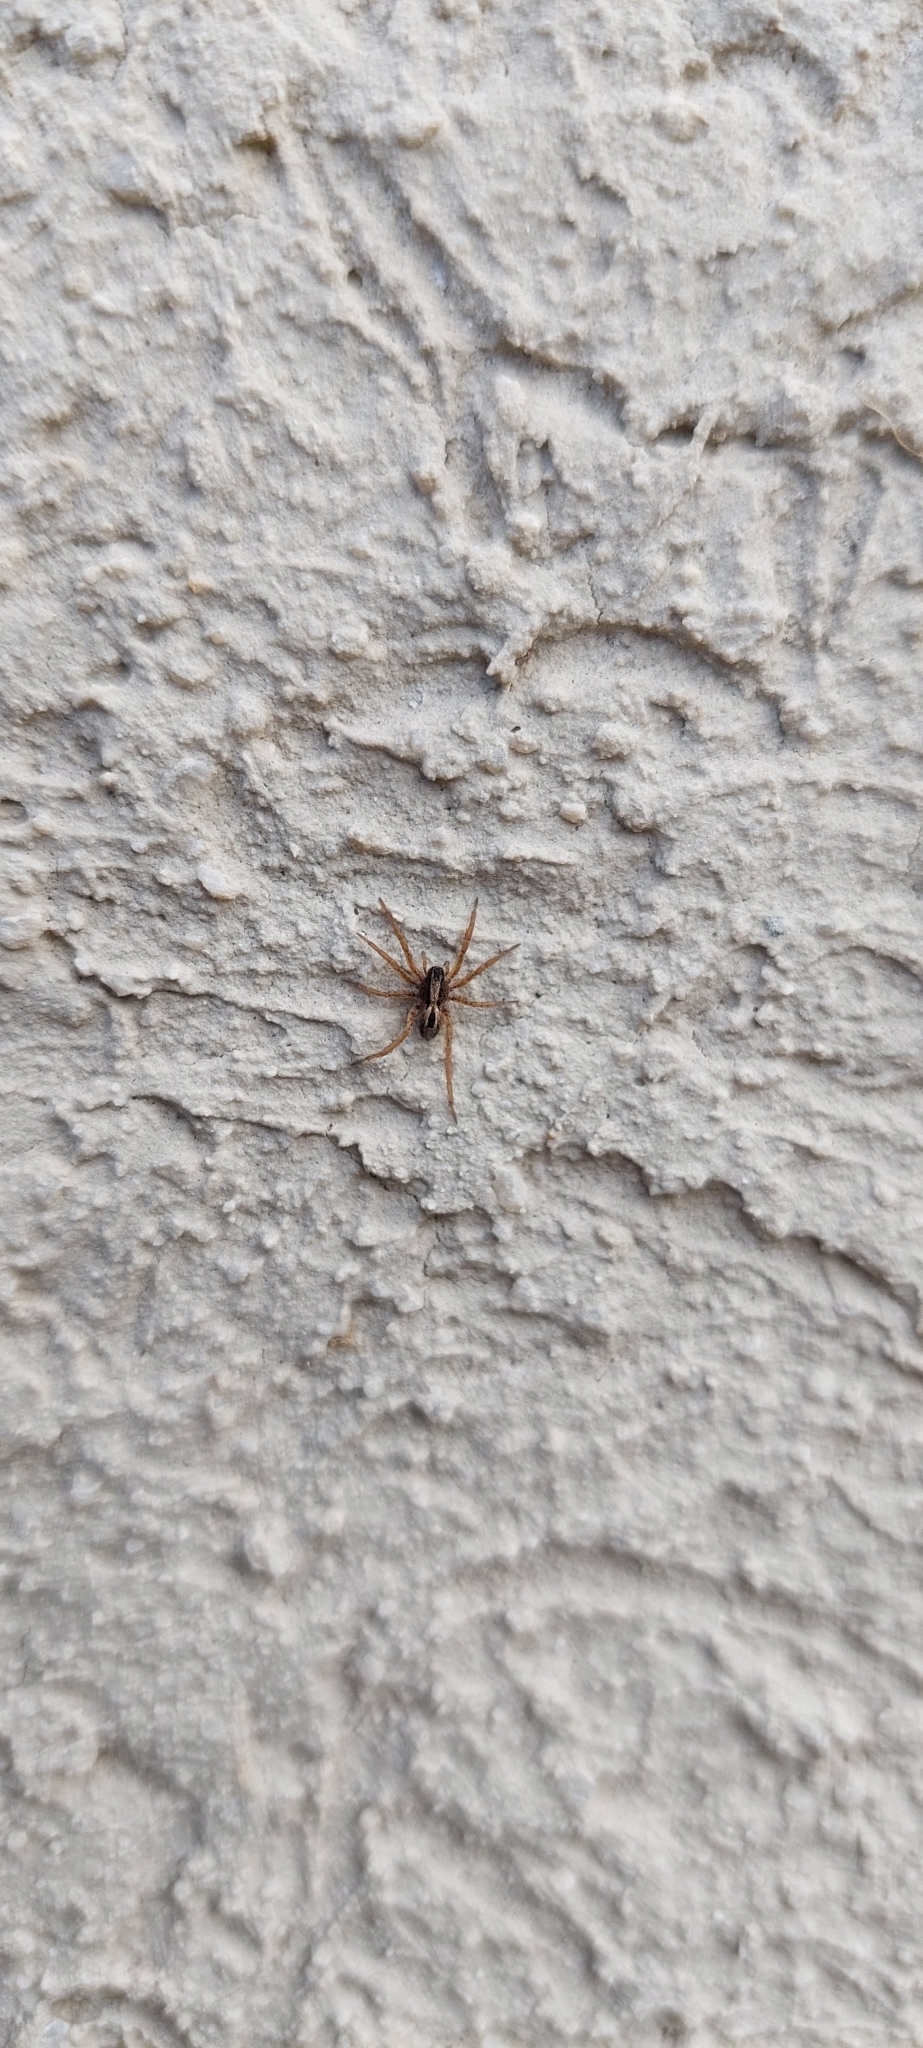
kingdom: Animalia
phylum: Arthropoda
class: Arachnida
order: Araneae
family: Lycosidae
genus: Hogna
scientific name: Hogna birabeni
